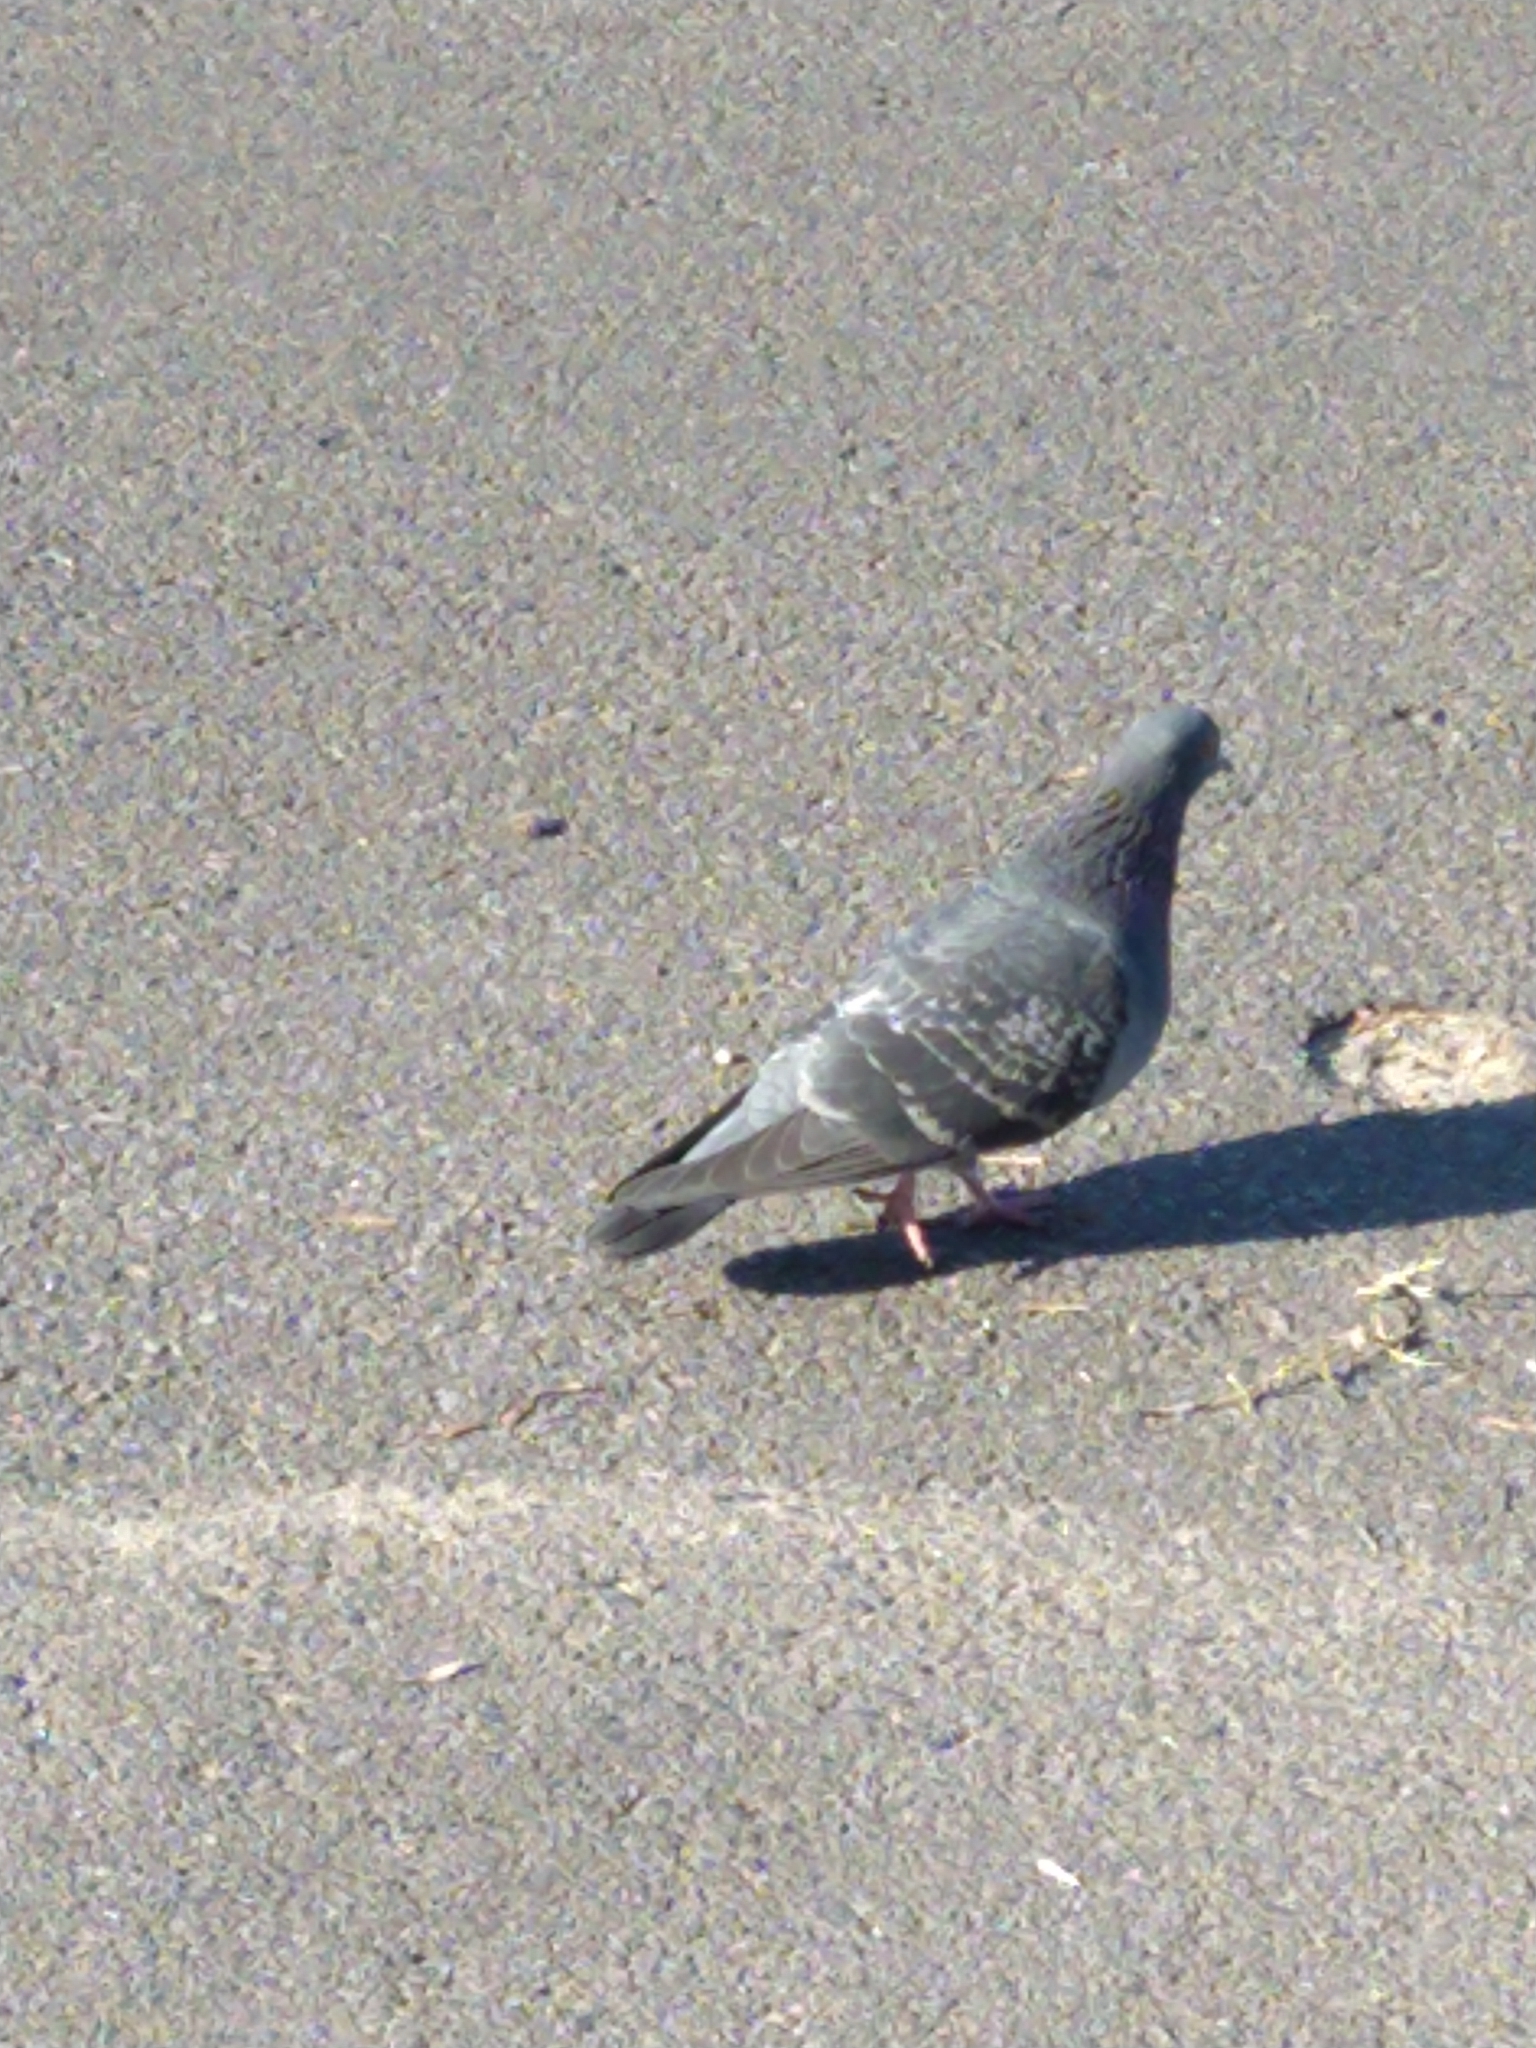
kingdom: Animalia
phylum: Chordata
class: Aves
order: Columbiformes
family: Columbidae
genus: Columba
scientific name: Columba livia
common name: Rock pigeon
